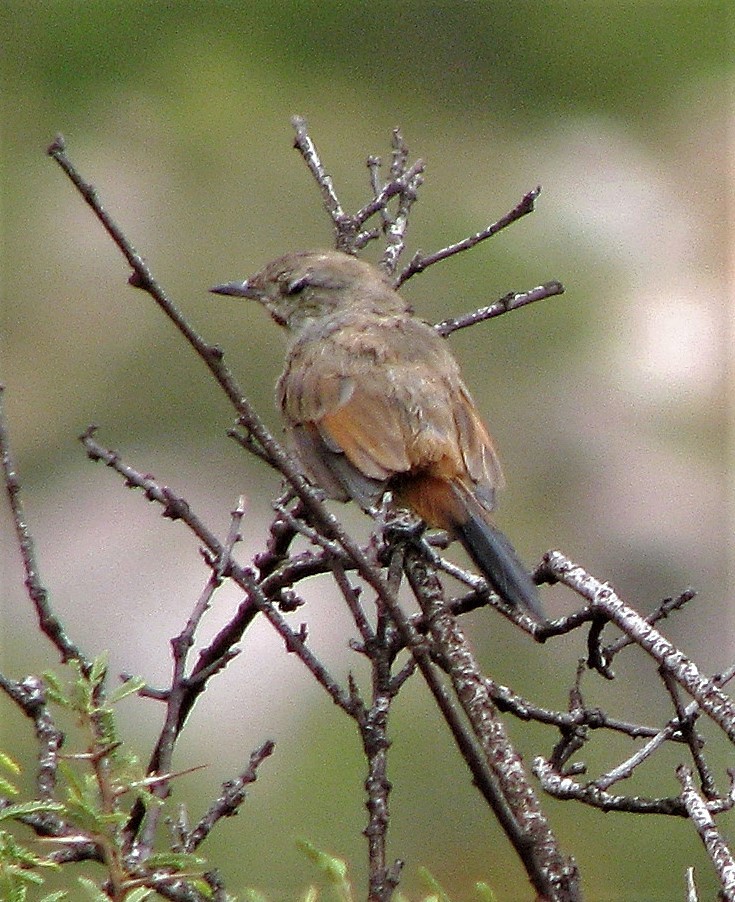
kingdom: Animalia
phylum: Chordata
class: Aves
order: Passeriformes
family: Furnariidae
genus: Asthenes
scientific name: Asthenes dorbignyi
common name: Rusty-vented canastero
